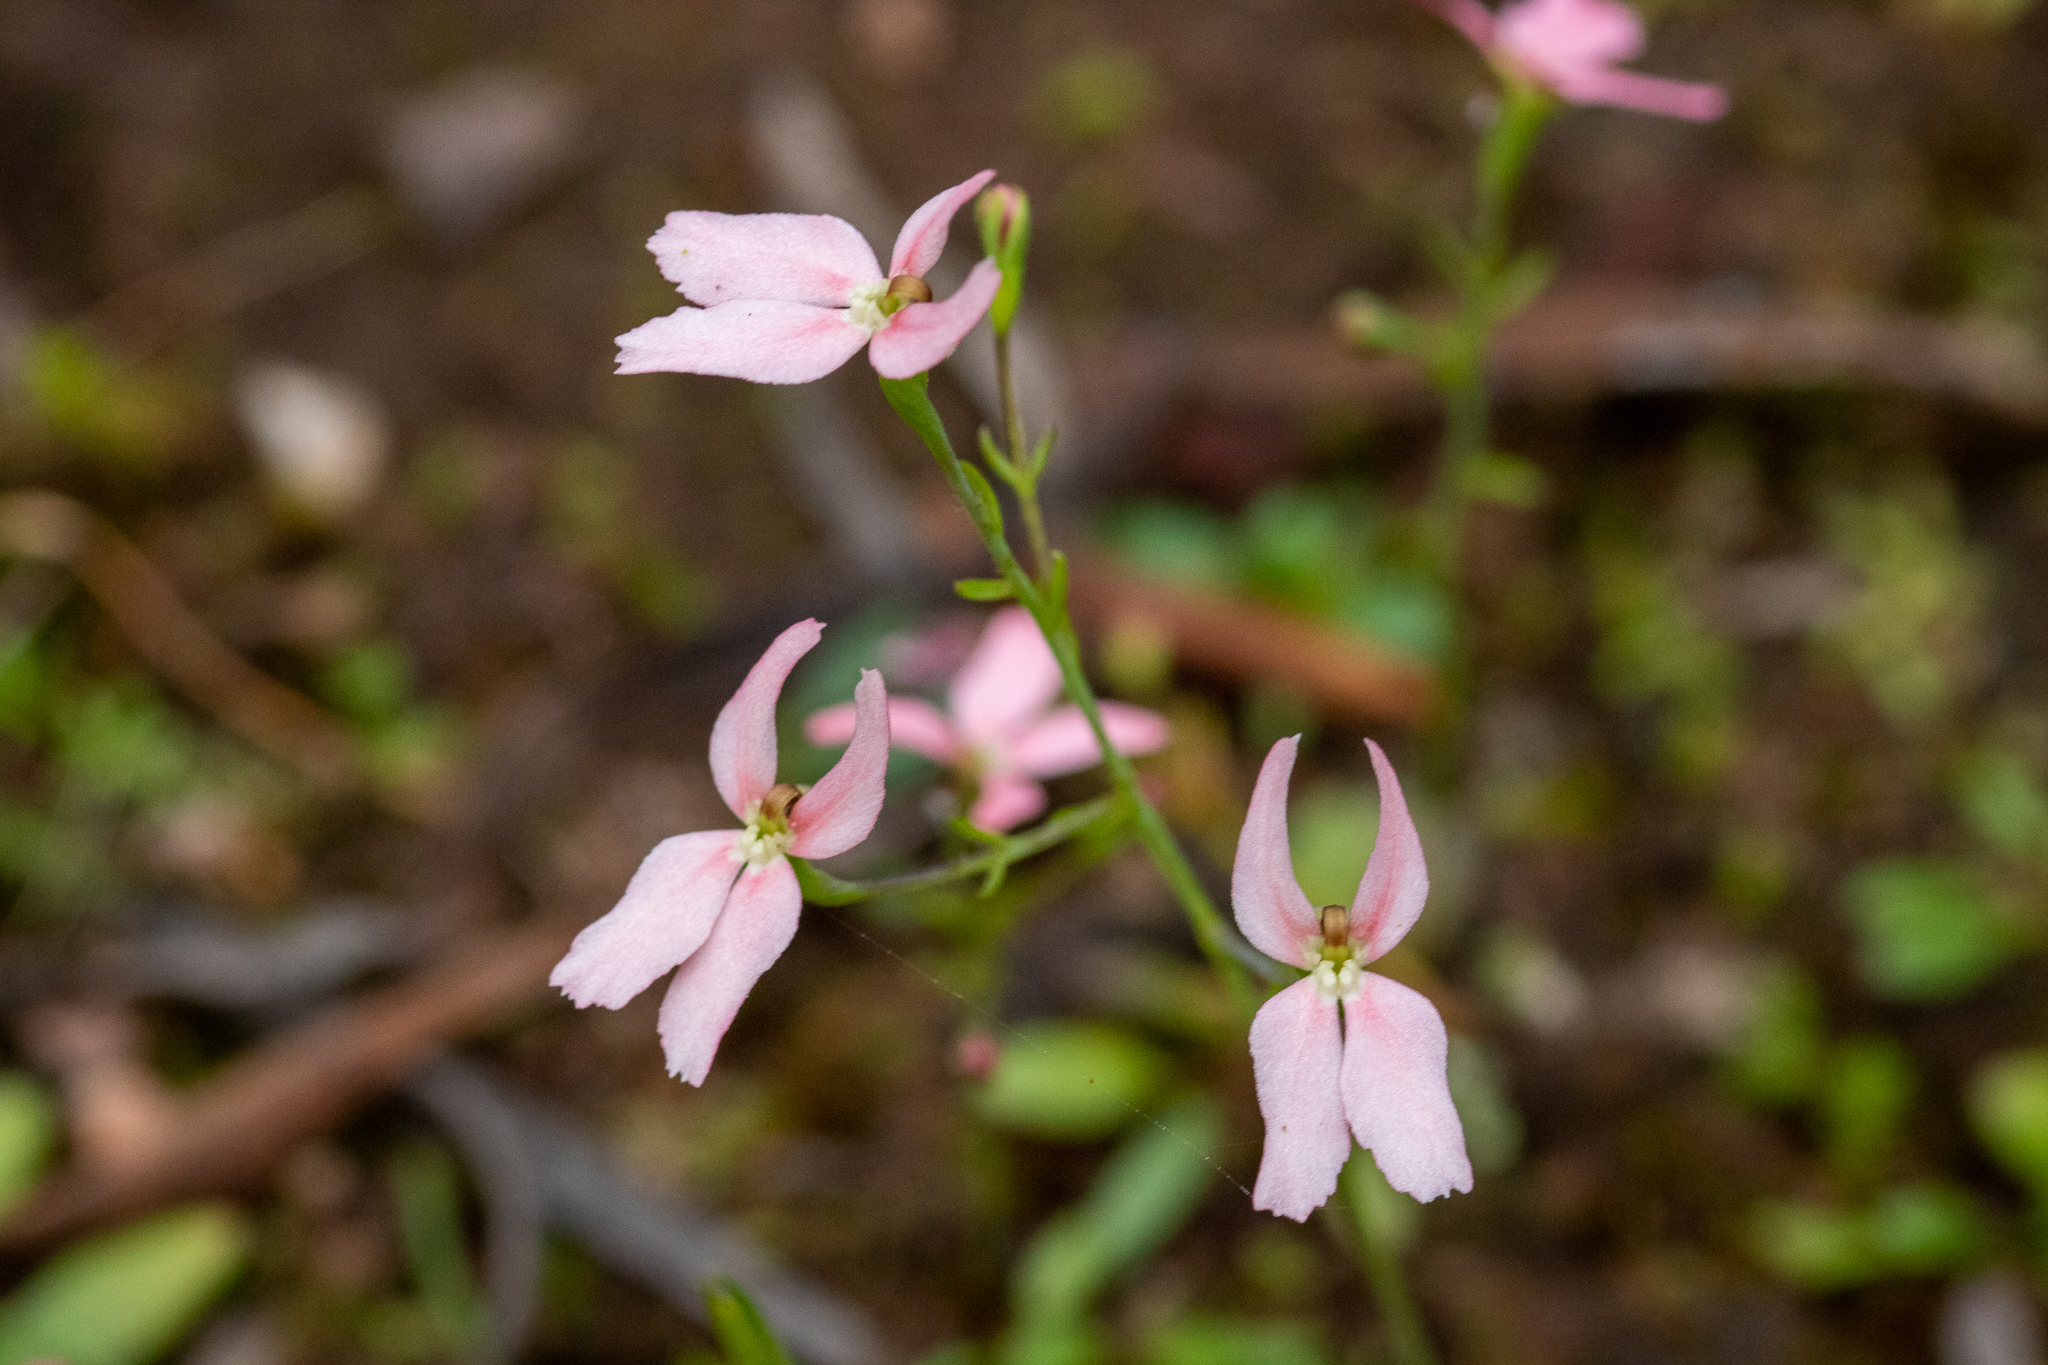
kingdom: Plantae
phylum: Tracheophyta
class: Magnoliopsida
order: Asterales
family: Stylidiaceae
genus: Stylidium
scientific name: Stylidium petiolare
